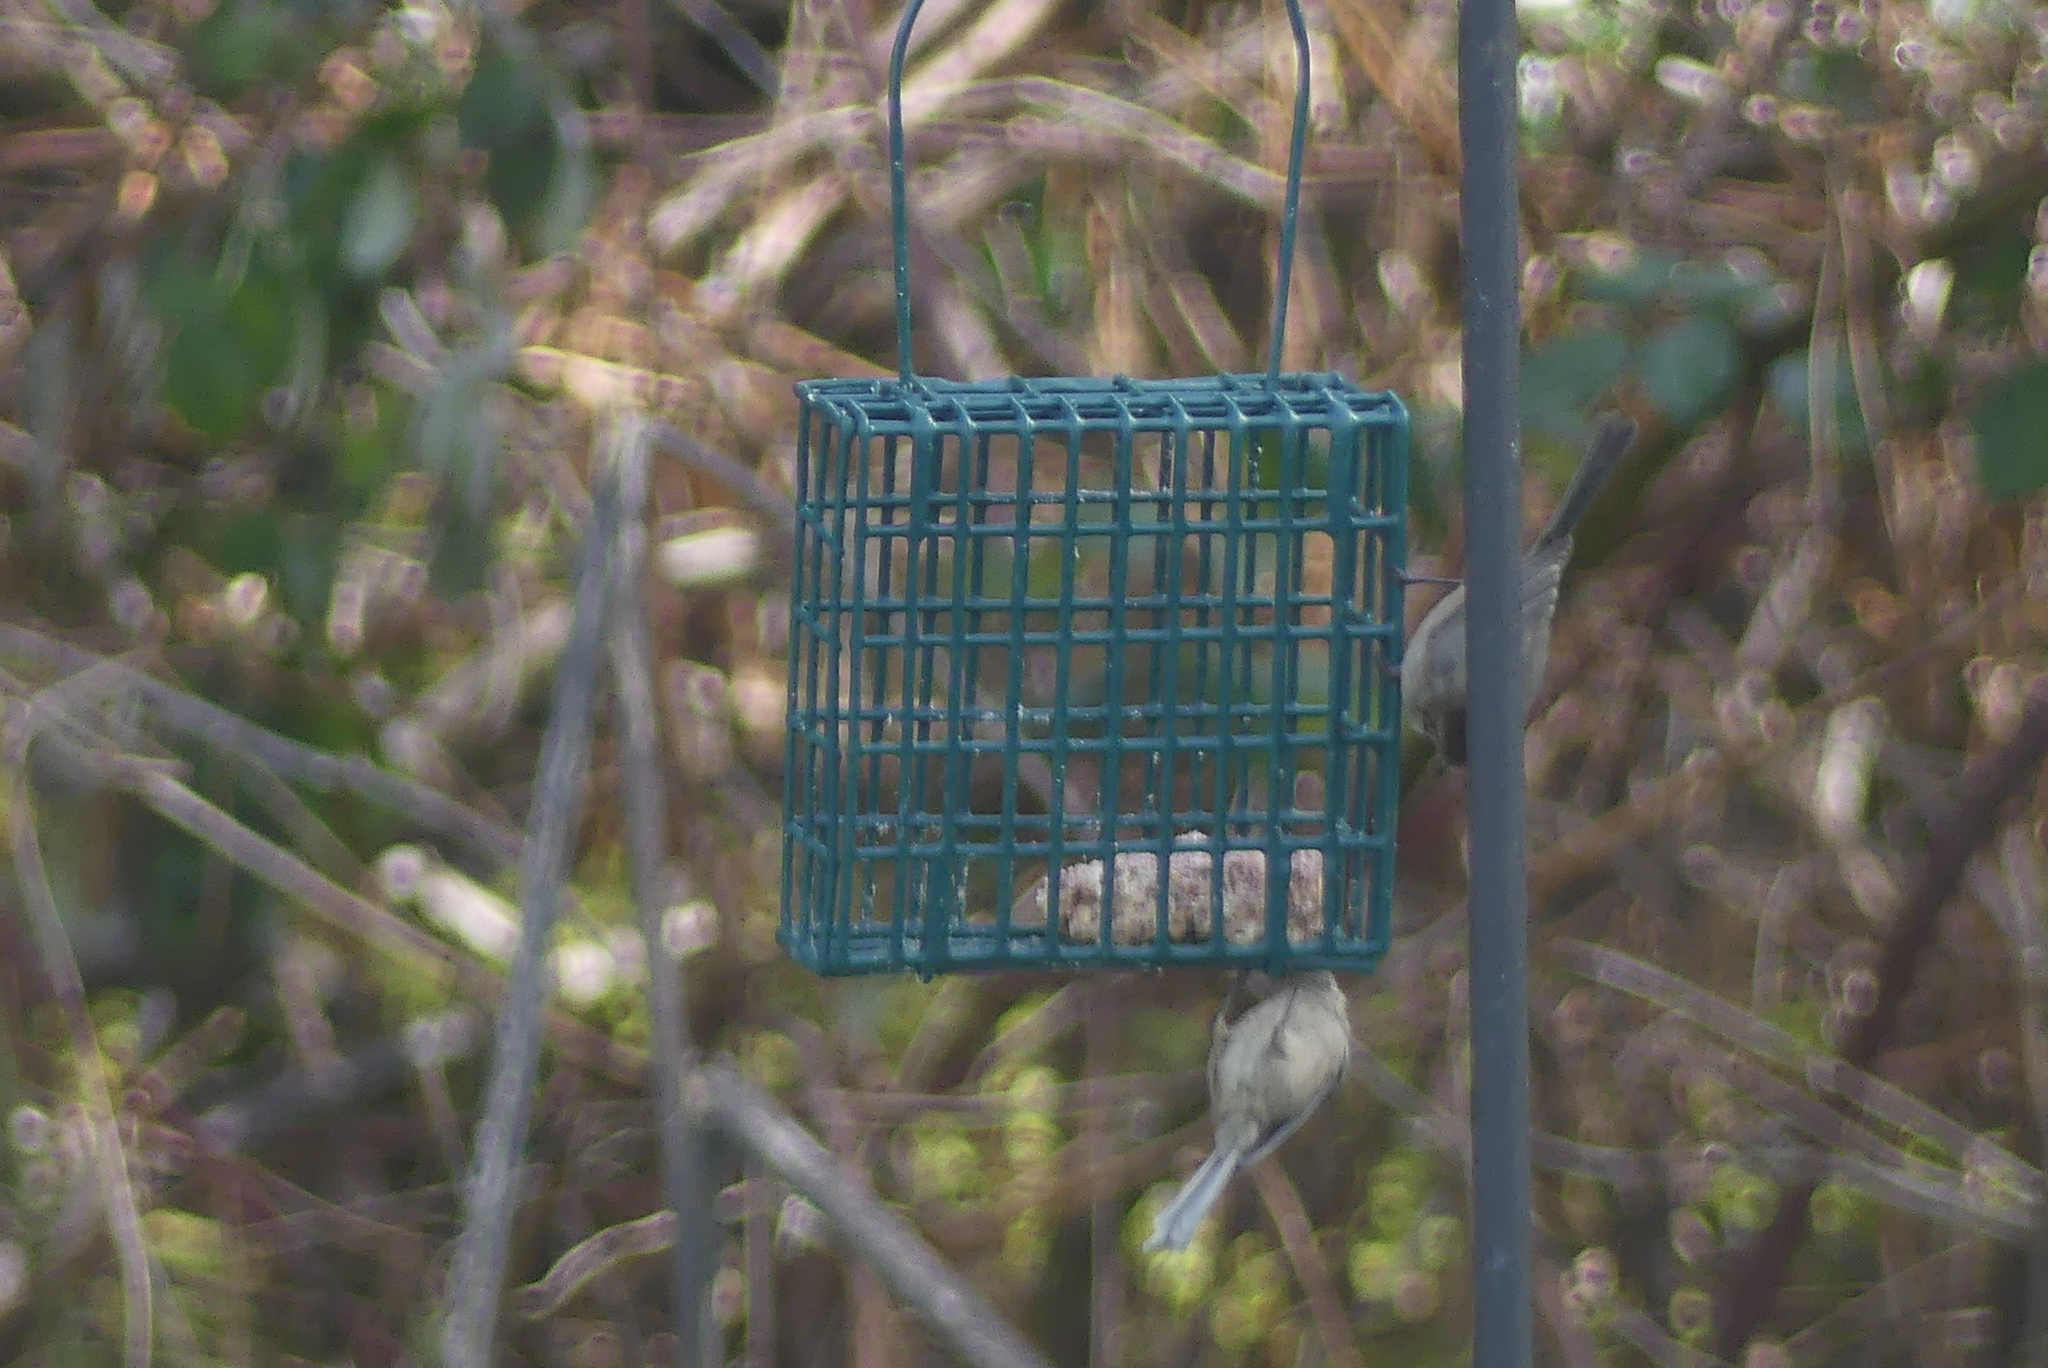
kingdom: Animalia
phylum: Chordata
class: Aves
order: Passeriformes
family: Aegithalidae
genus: Psaltriparus
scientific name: Psaltriparus minimus
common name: American bushtit
